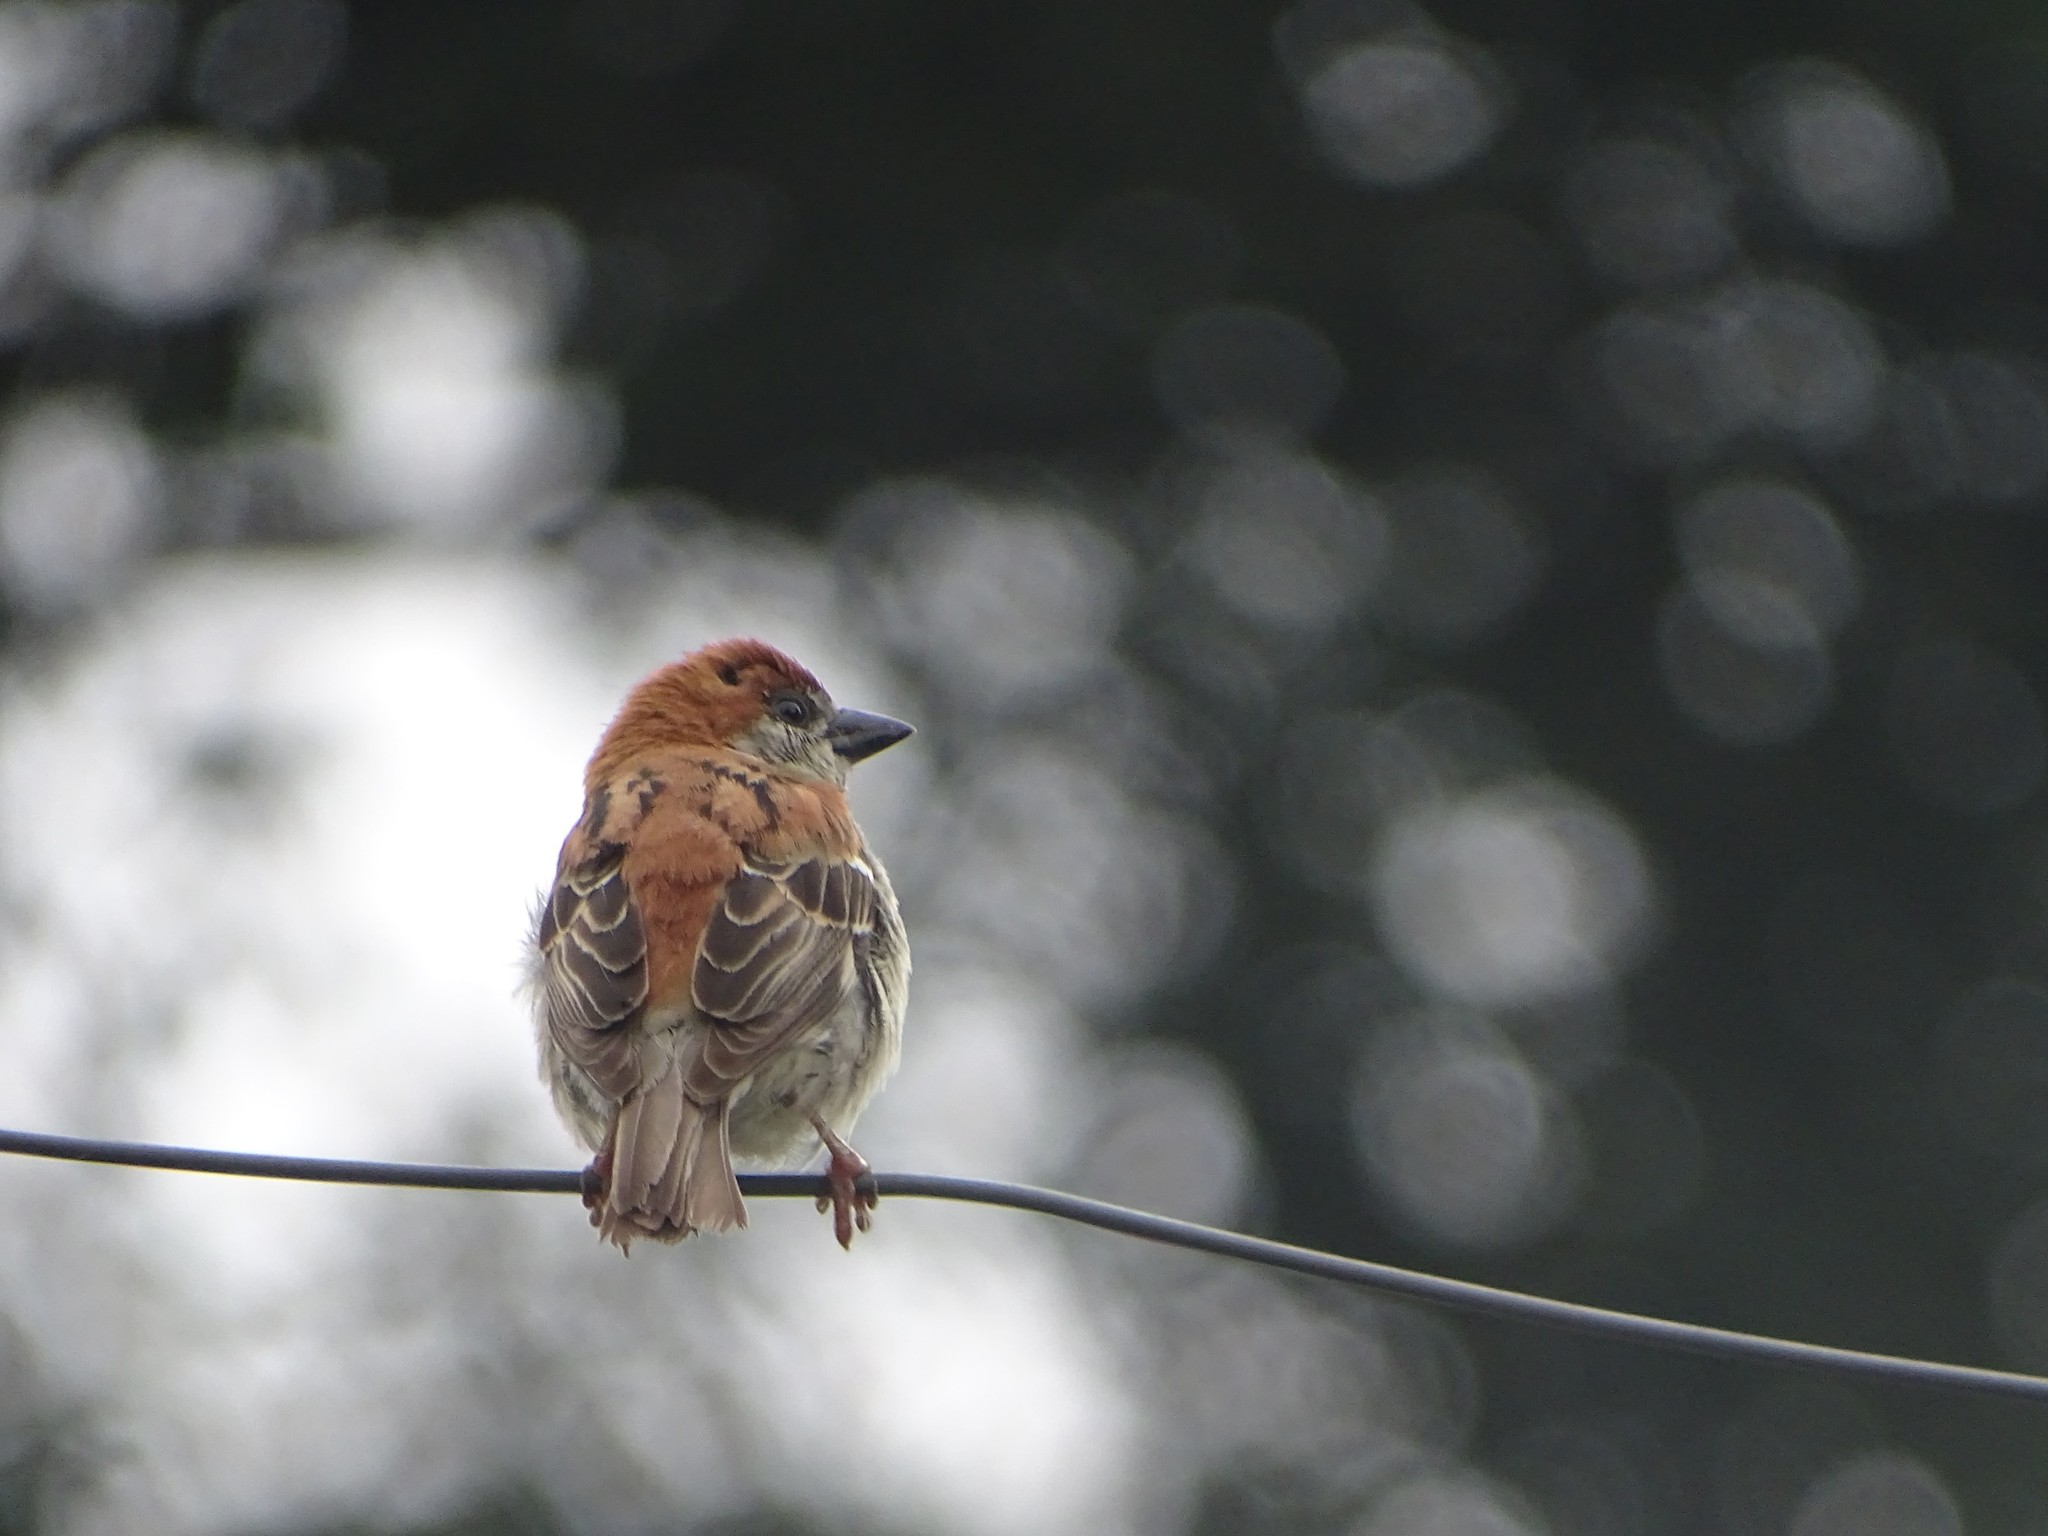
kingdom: Animalia
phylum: Chordata
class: Aves
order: Passeriformes
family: Passeridae
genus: Passer
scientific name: Passer cinnamomeus
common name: Russet sparrow
